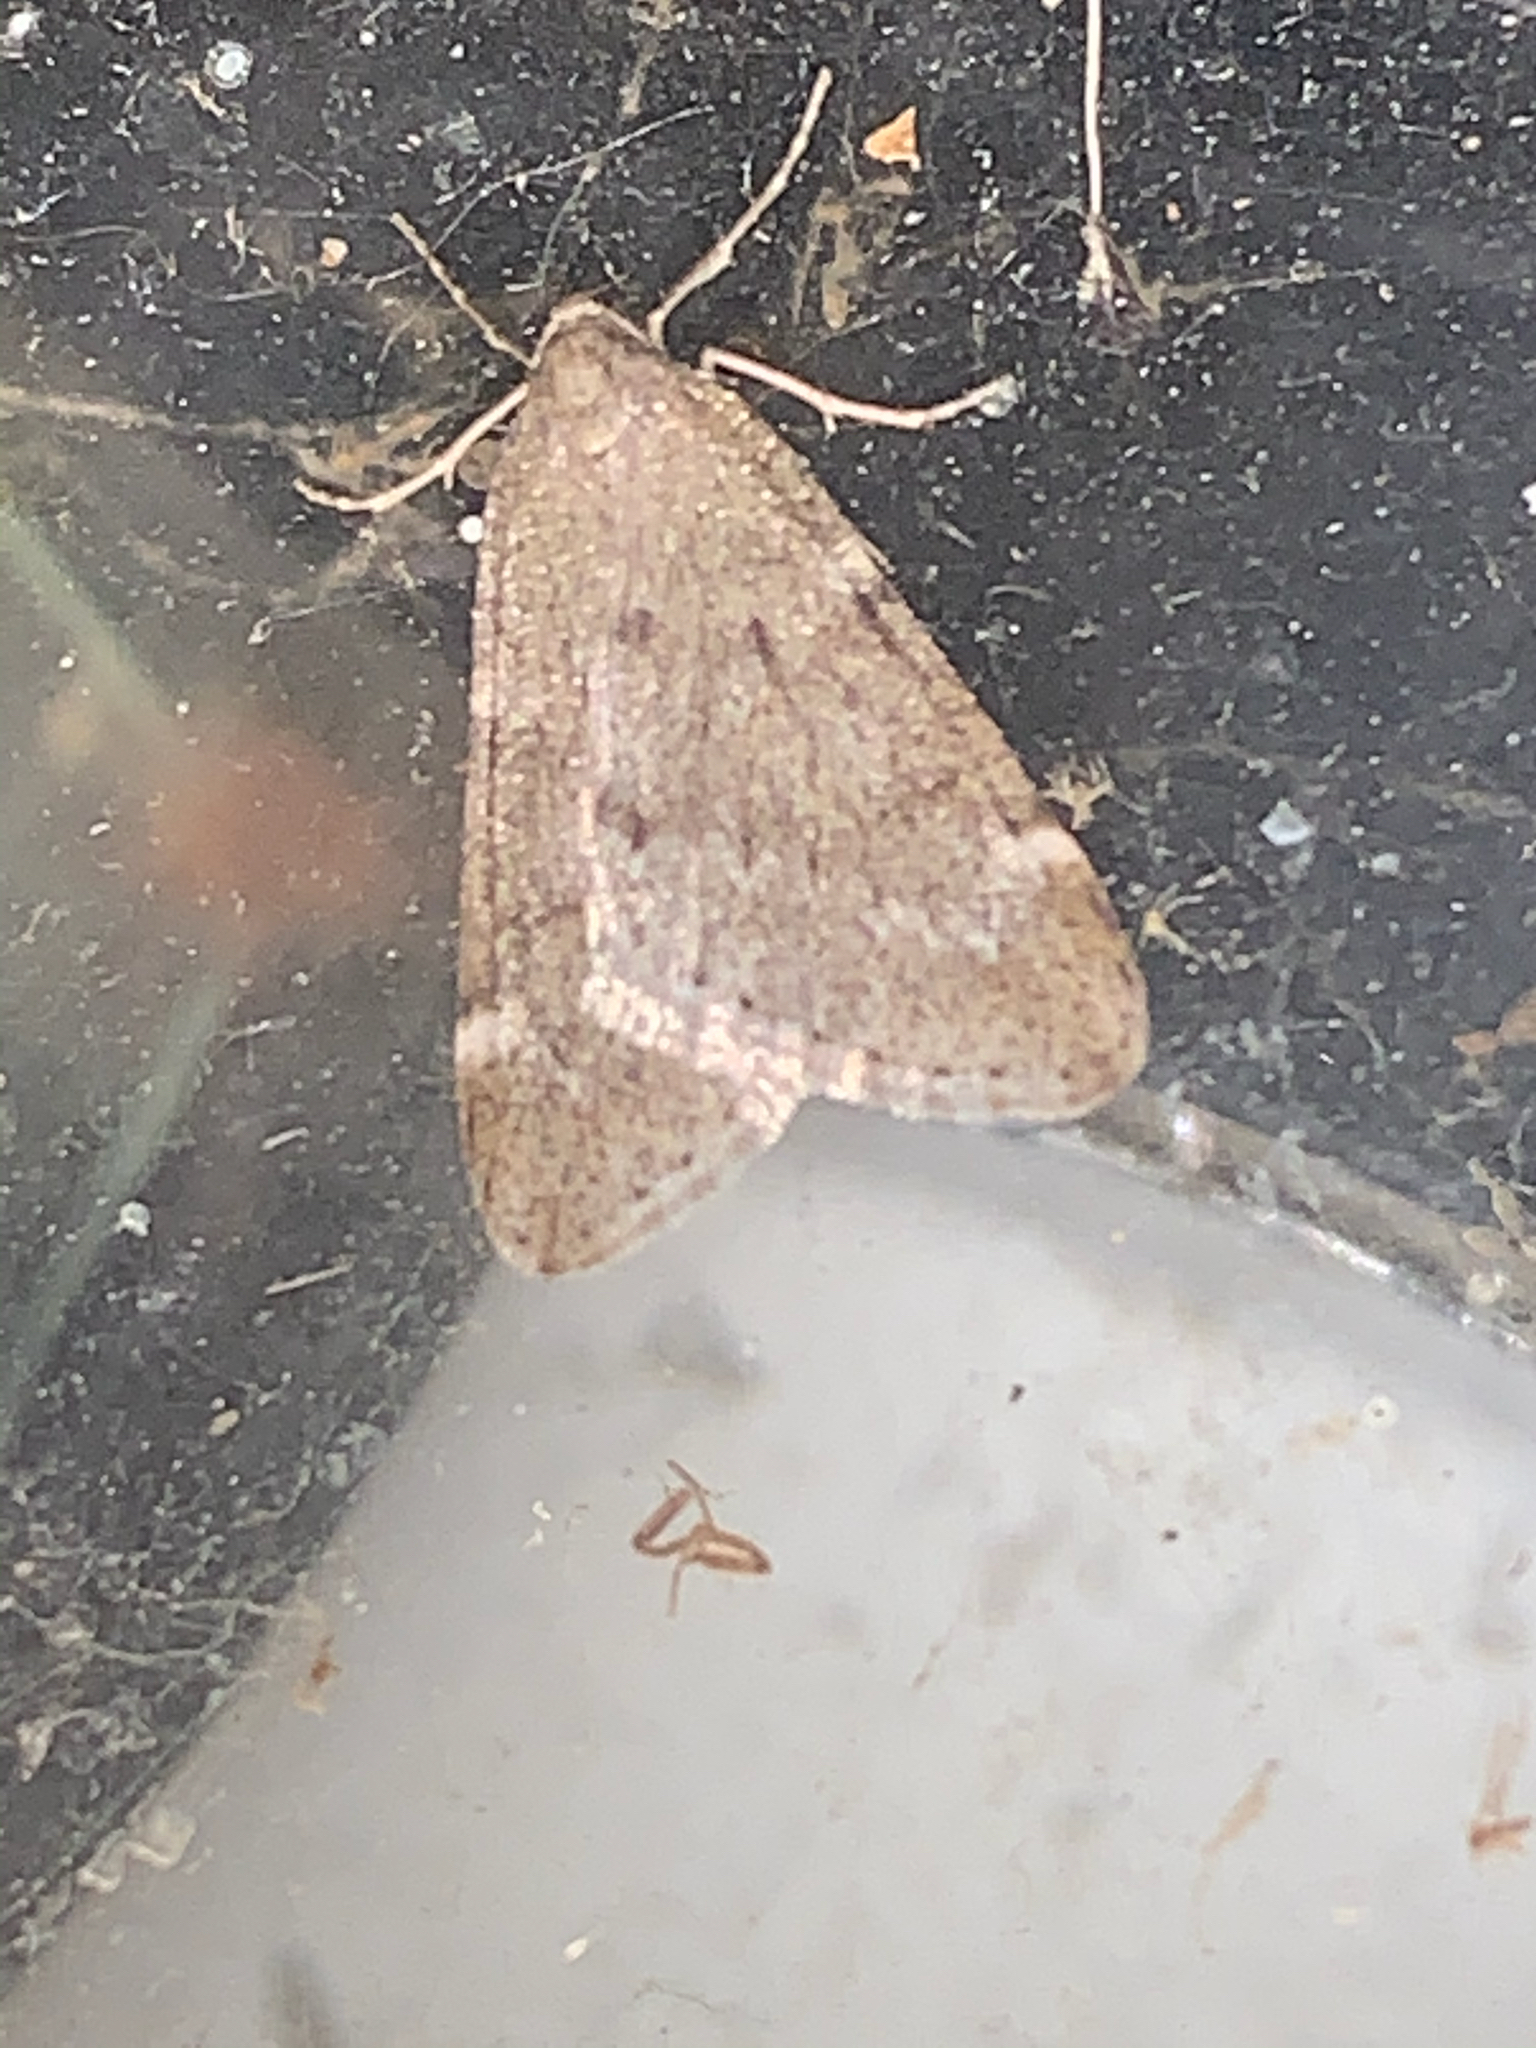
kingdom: Animalia
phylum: Arthropoda
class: Insecta
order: Lepidoptera
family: Geometridae
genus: Alsophila
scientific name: Alsophila pometaria
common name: Fall cankerworm
